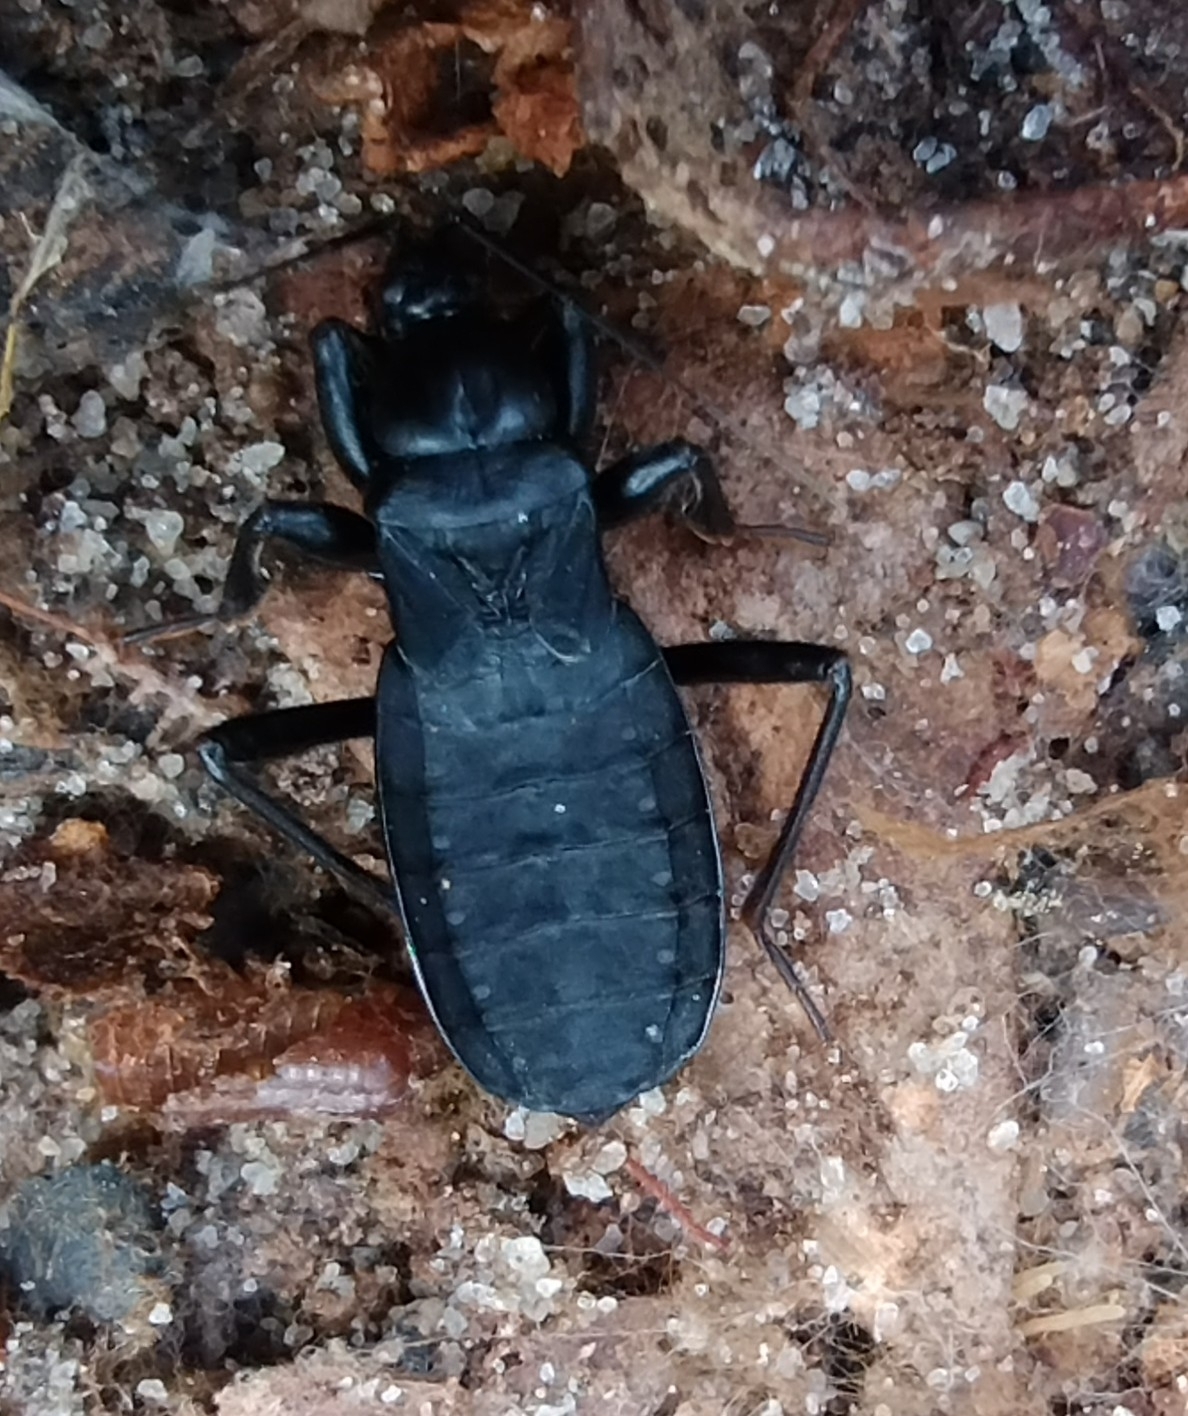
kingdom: Animalia
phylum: Arthropoda
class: Insecta
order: Hemiptera
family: Reduviidae
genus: Melanolestes
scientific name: Melanolestes picipes
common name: Assassin bug
